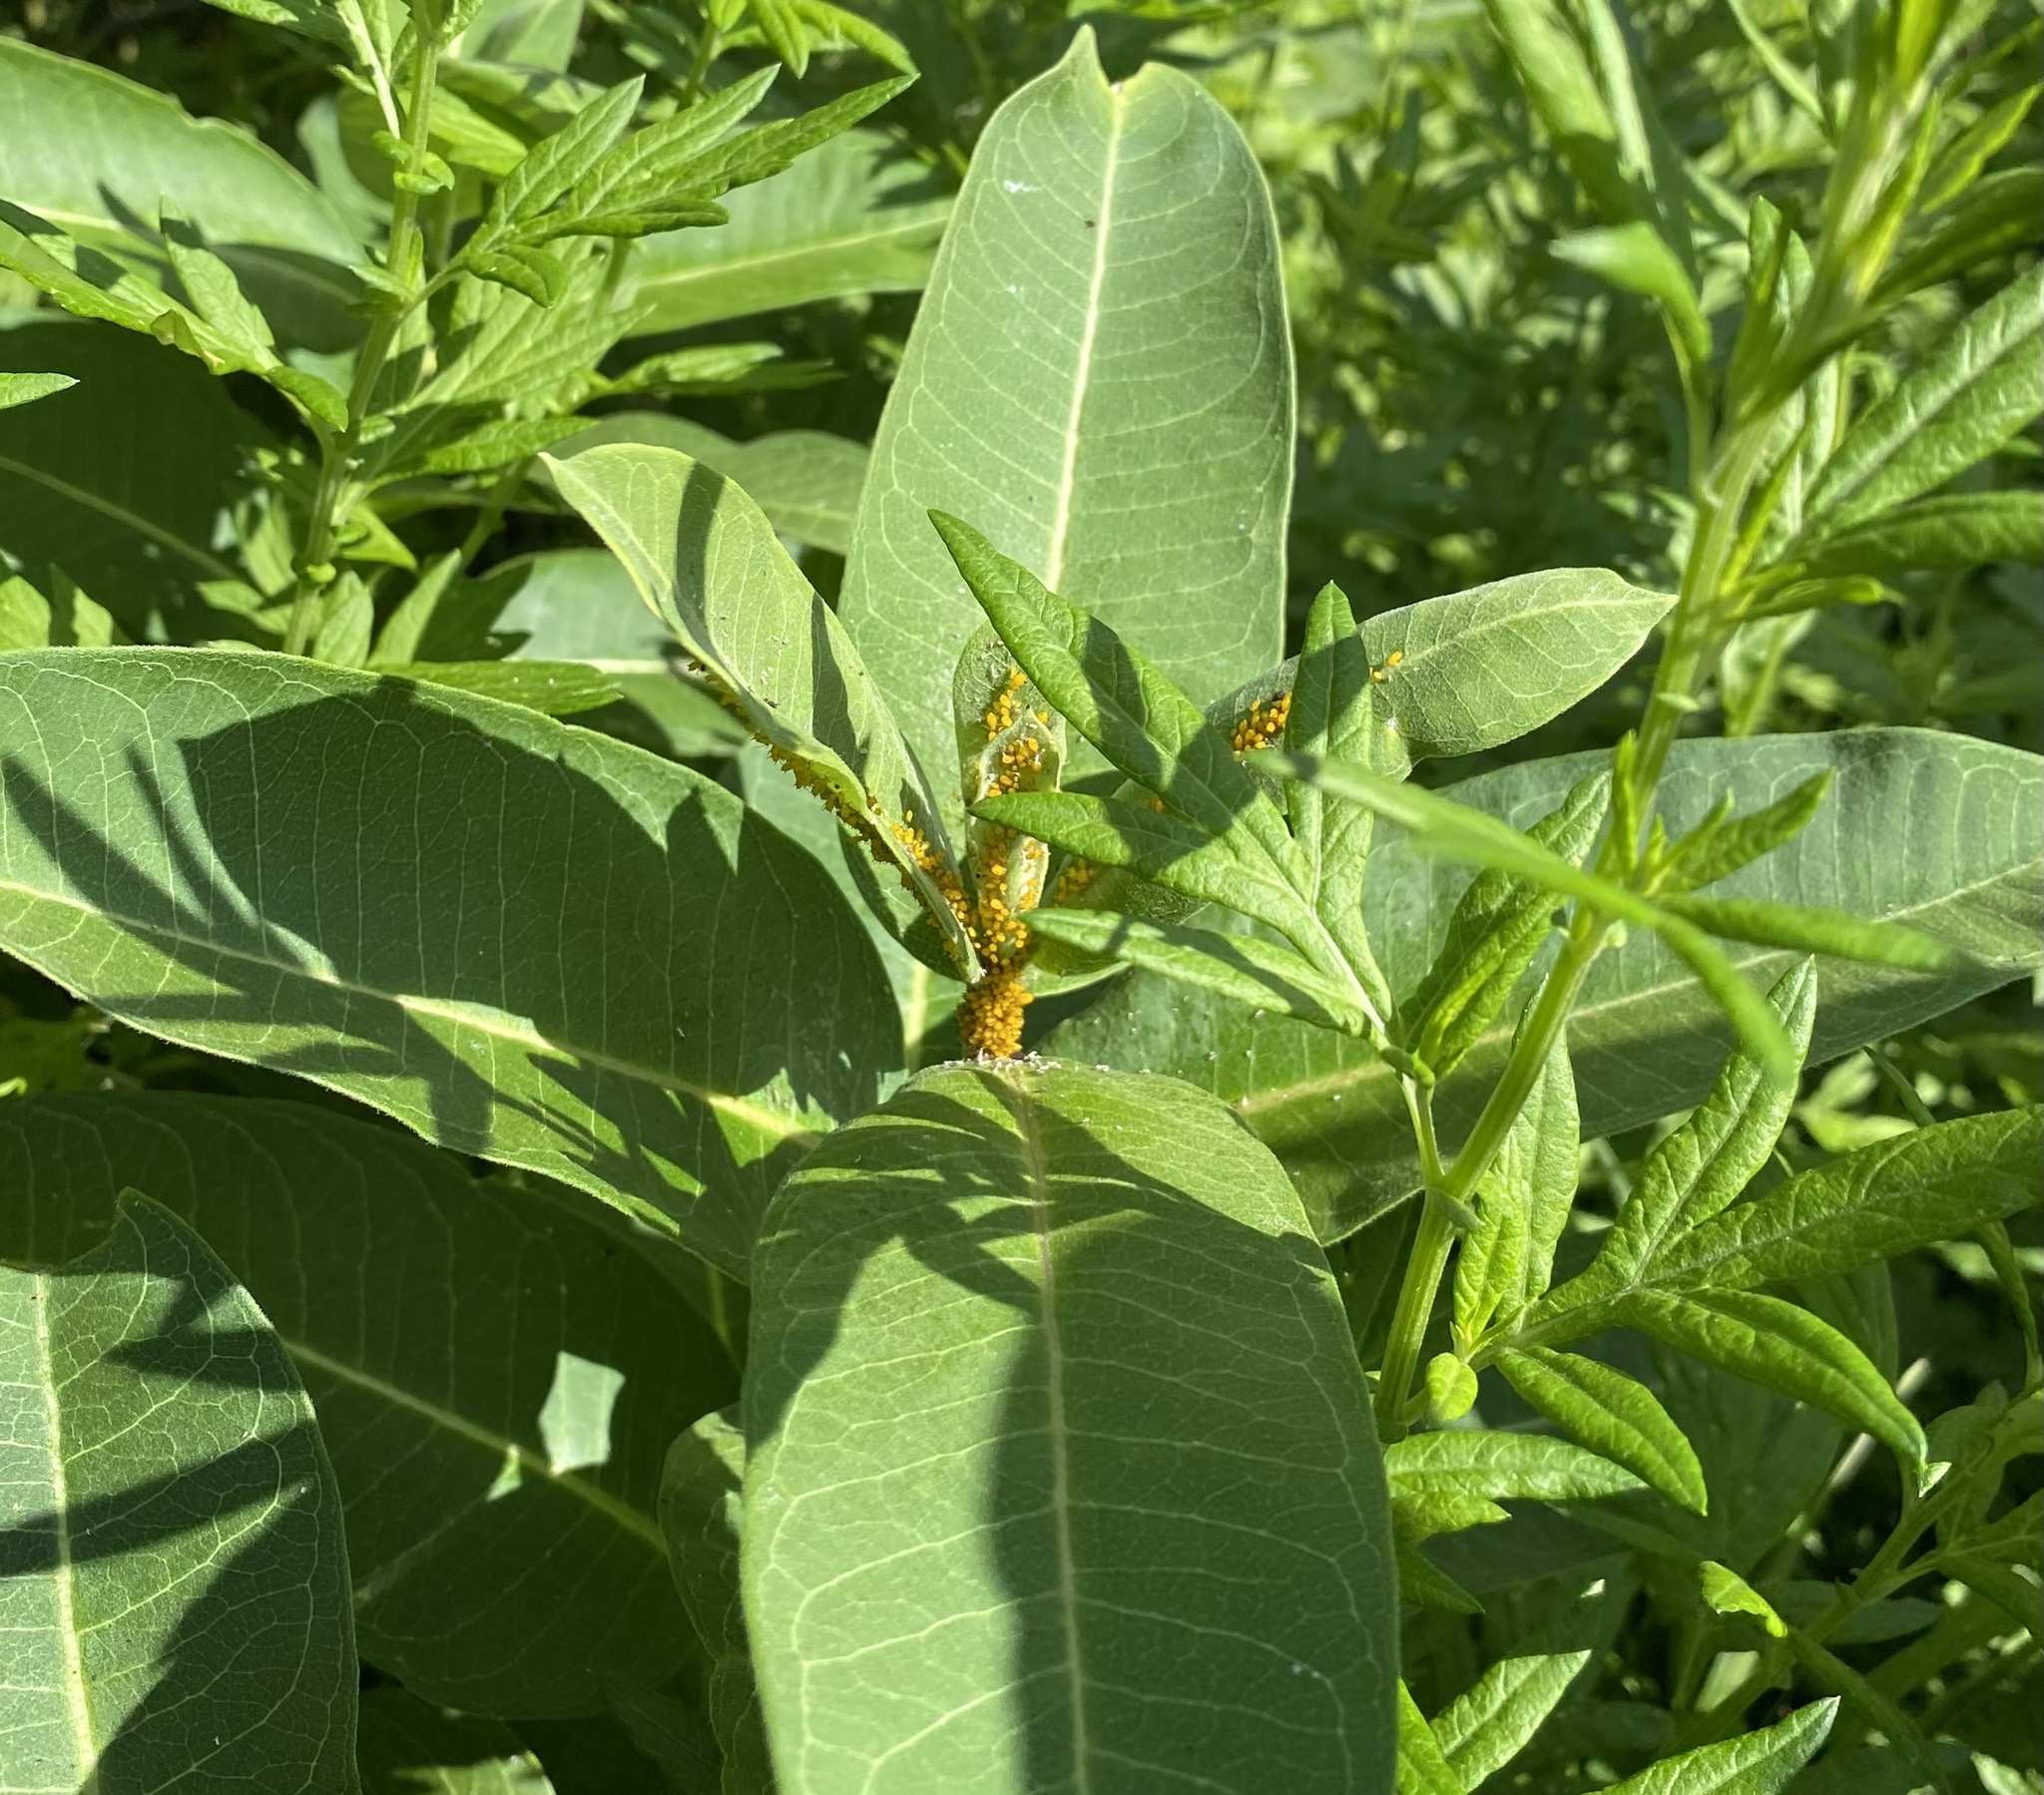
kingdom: Animalia
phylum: Arthropoda
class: Insecta
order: Hemiptera
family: Aphididae
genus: Aphis
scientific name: Aphis nerii
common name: Oleander aphid
